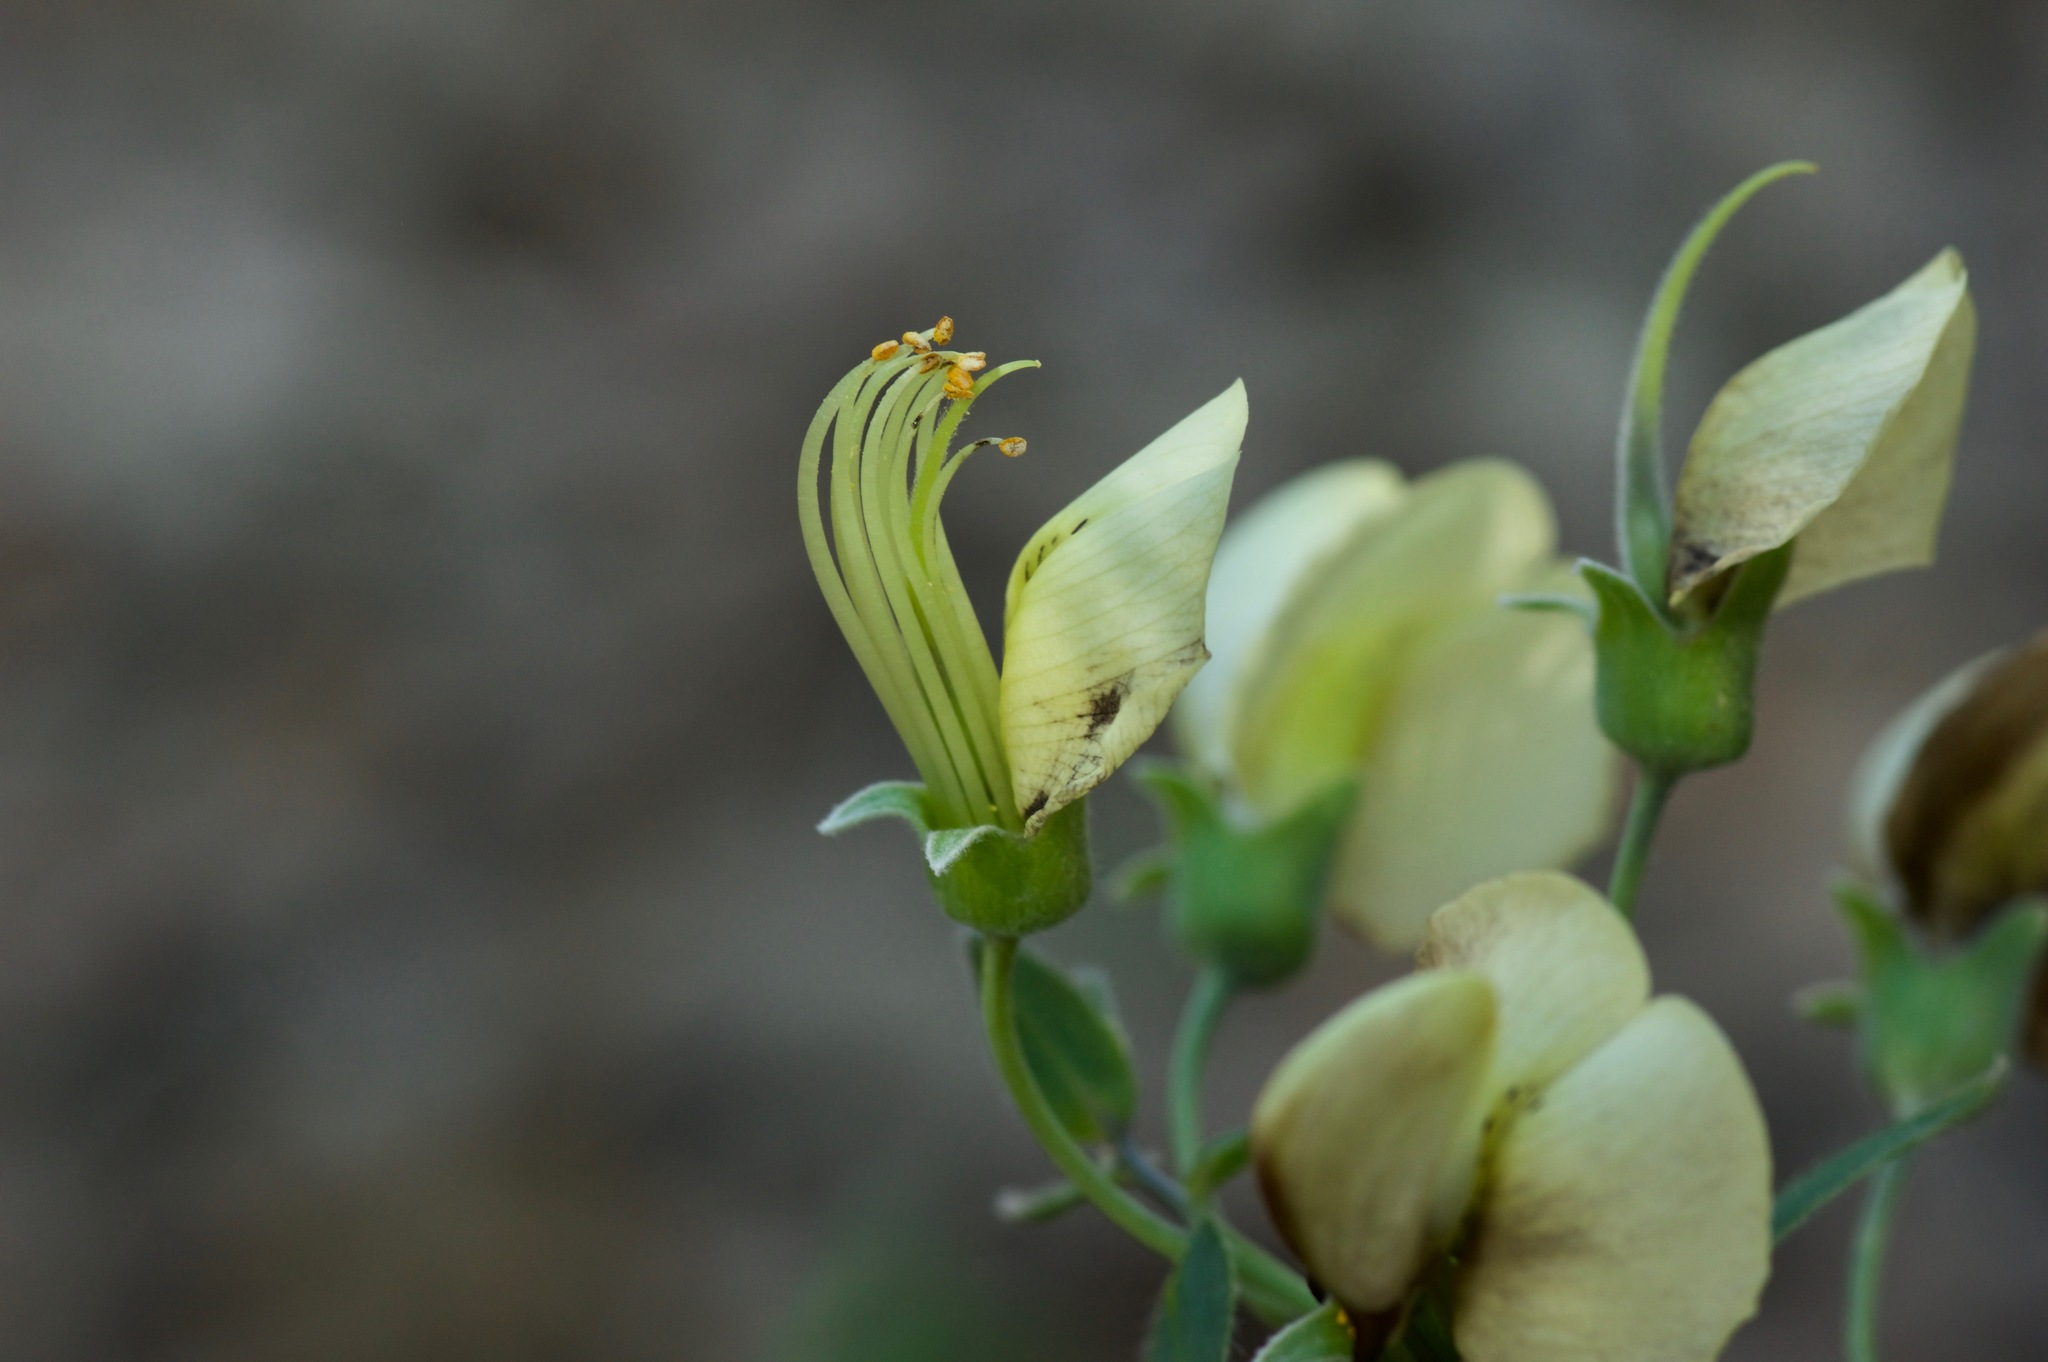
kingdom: Plantae
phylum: Tracheophyta
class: Magnoliopsida
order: Fabales
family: Fabaceae
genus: Baptisia
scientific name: Baptisia bracteata
